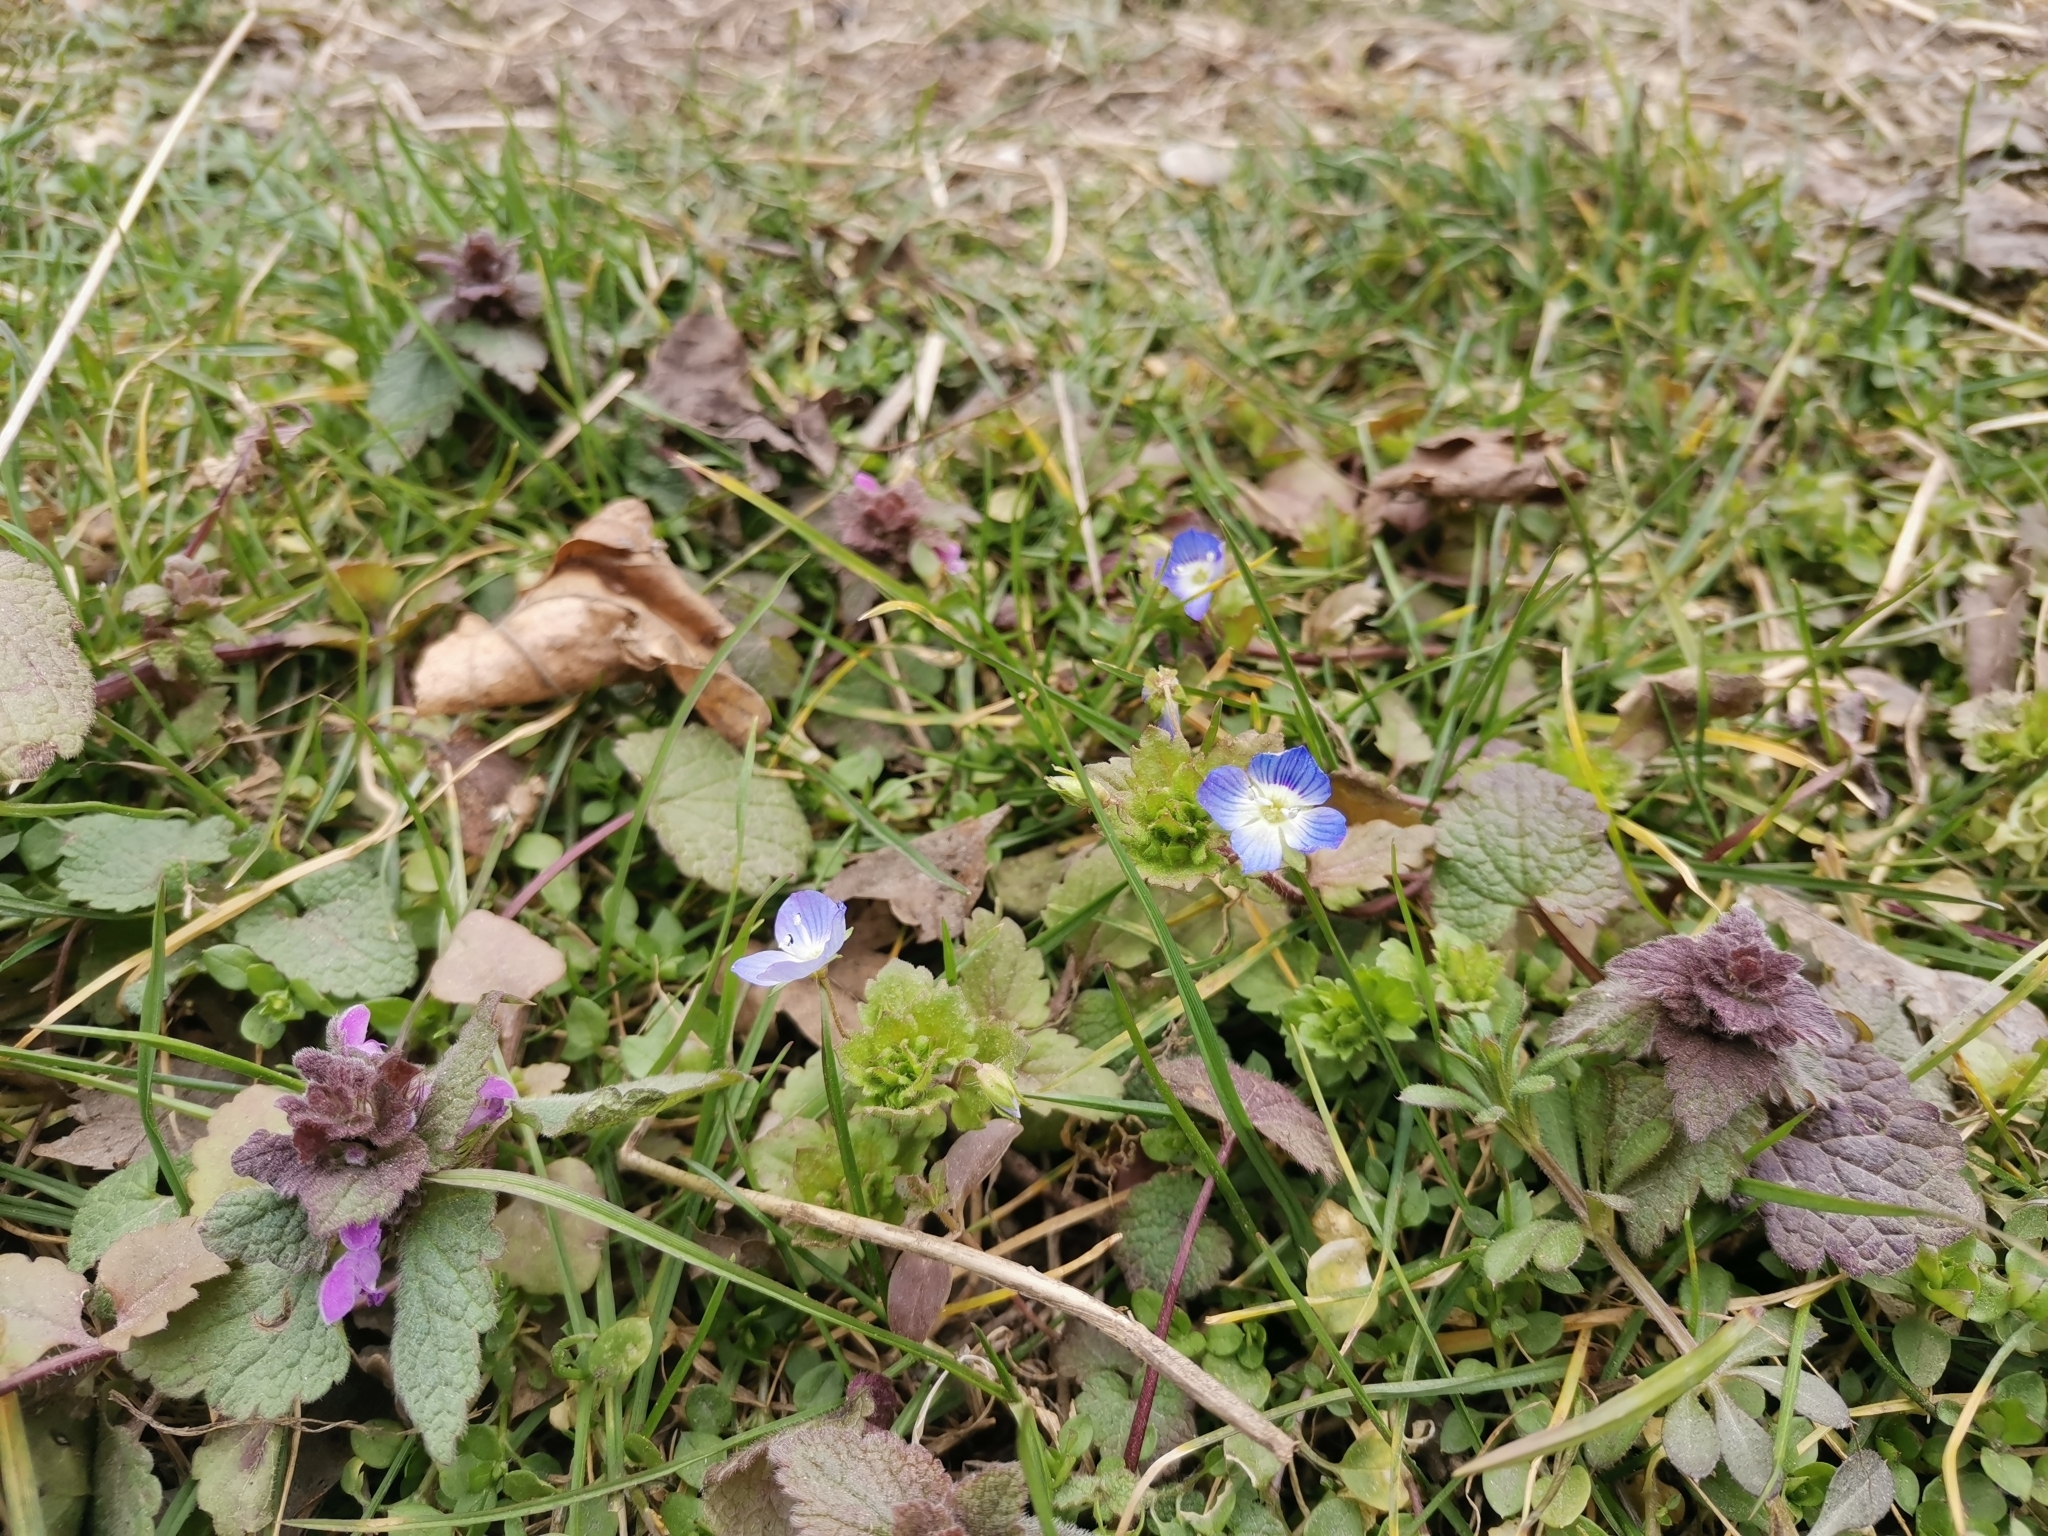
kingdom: Plantae
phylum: Tracheophyta
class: Magnoliopsida
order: Lamiales
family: Plantaginaceae
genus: Veronica
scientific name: Veronica persica
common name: Common field-speedwell
